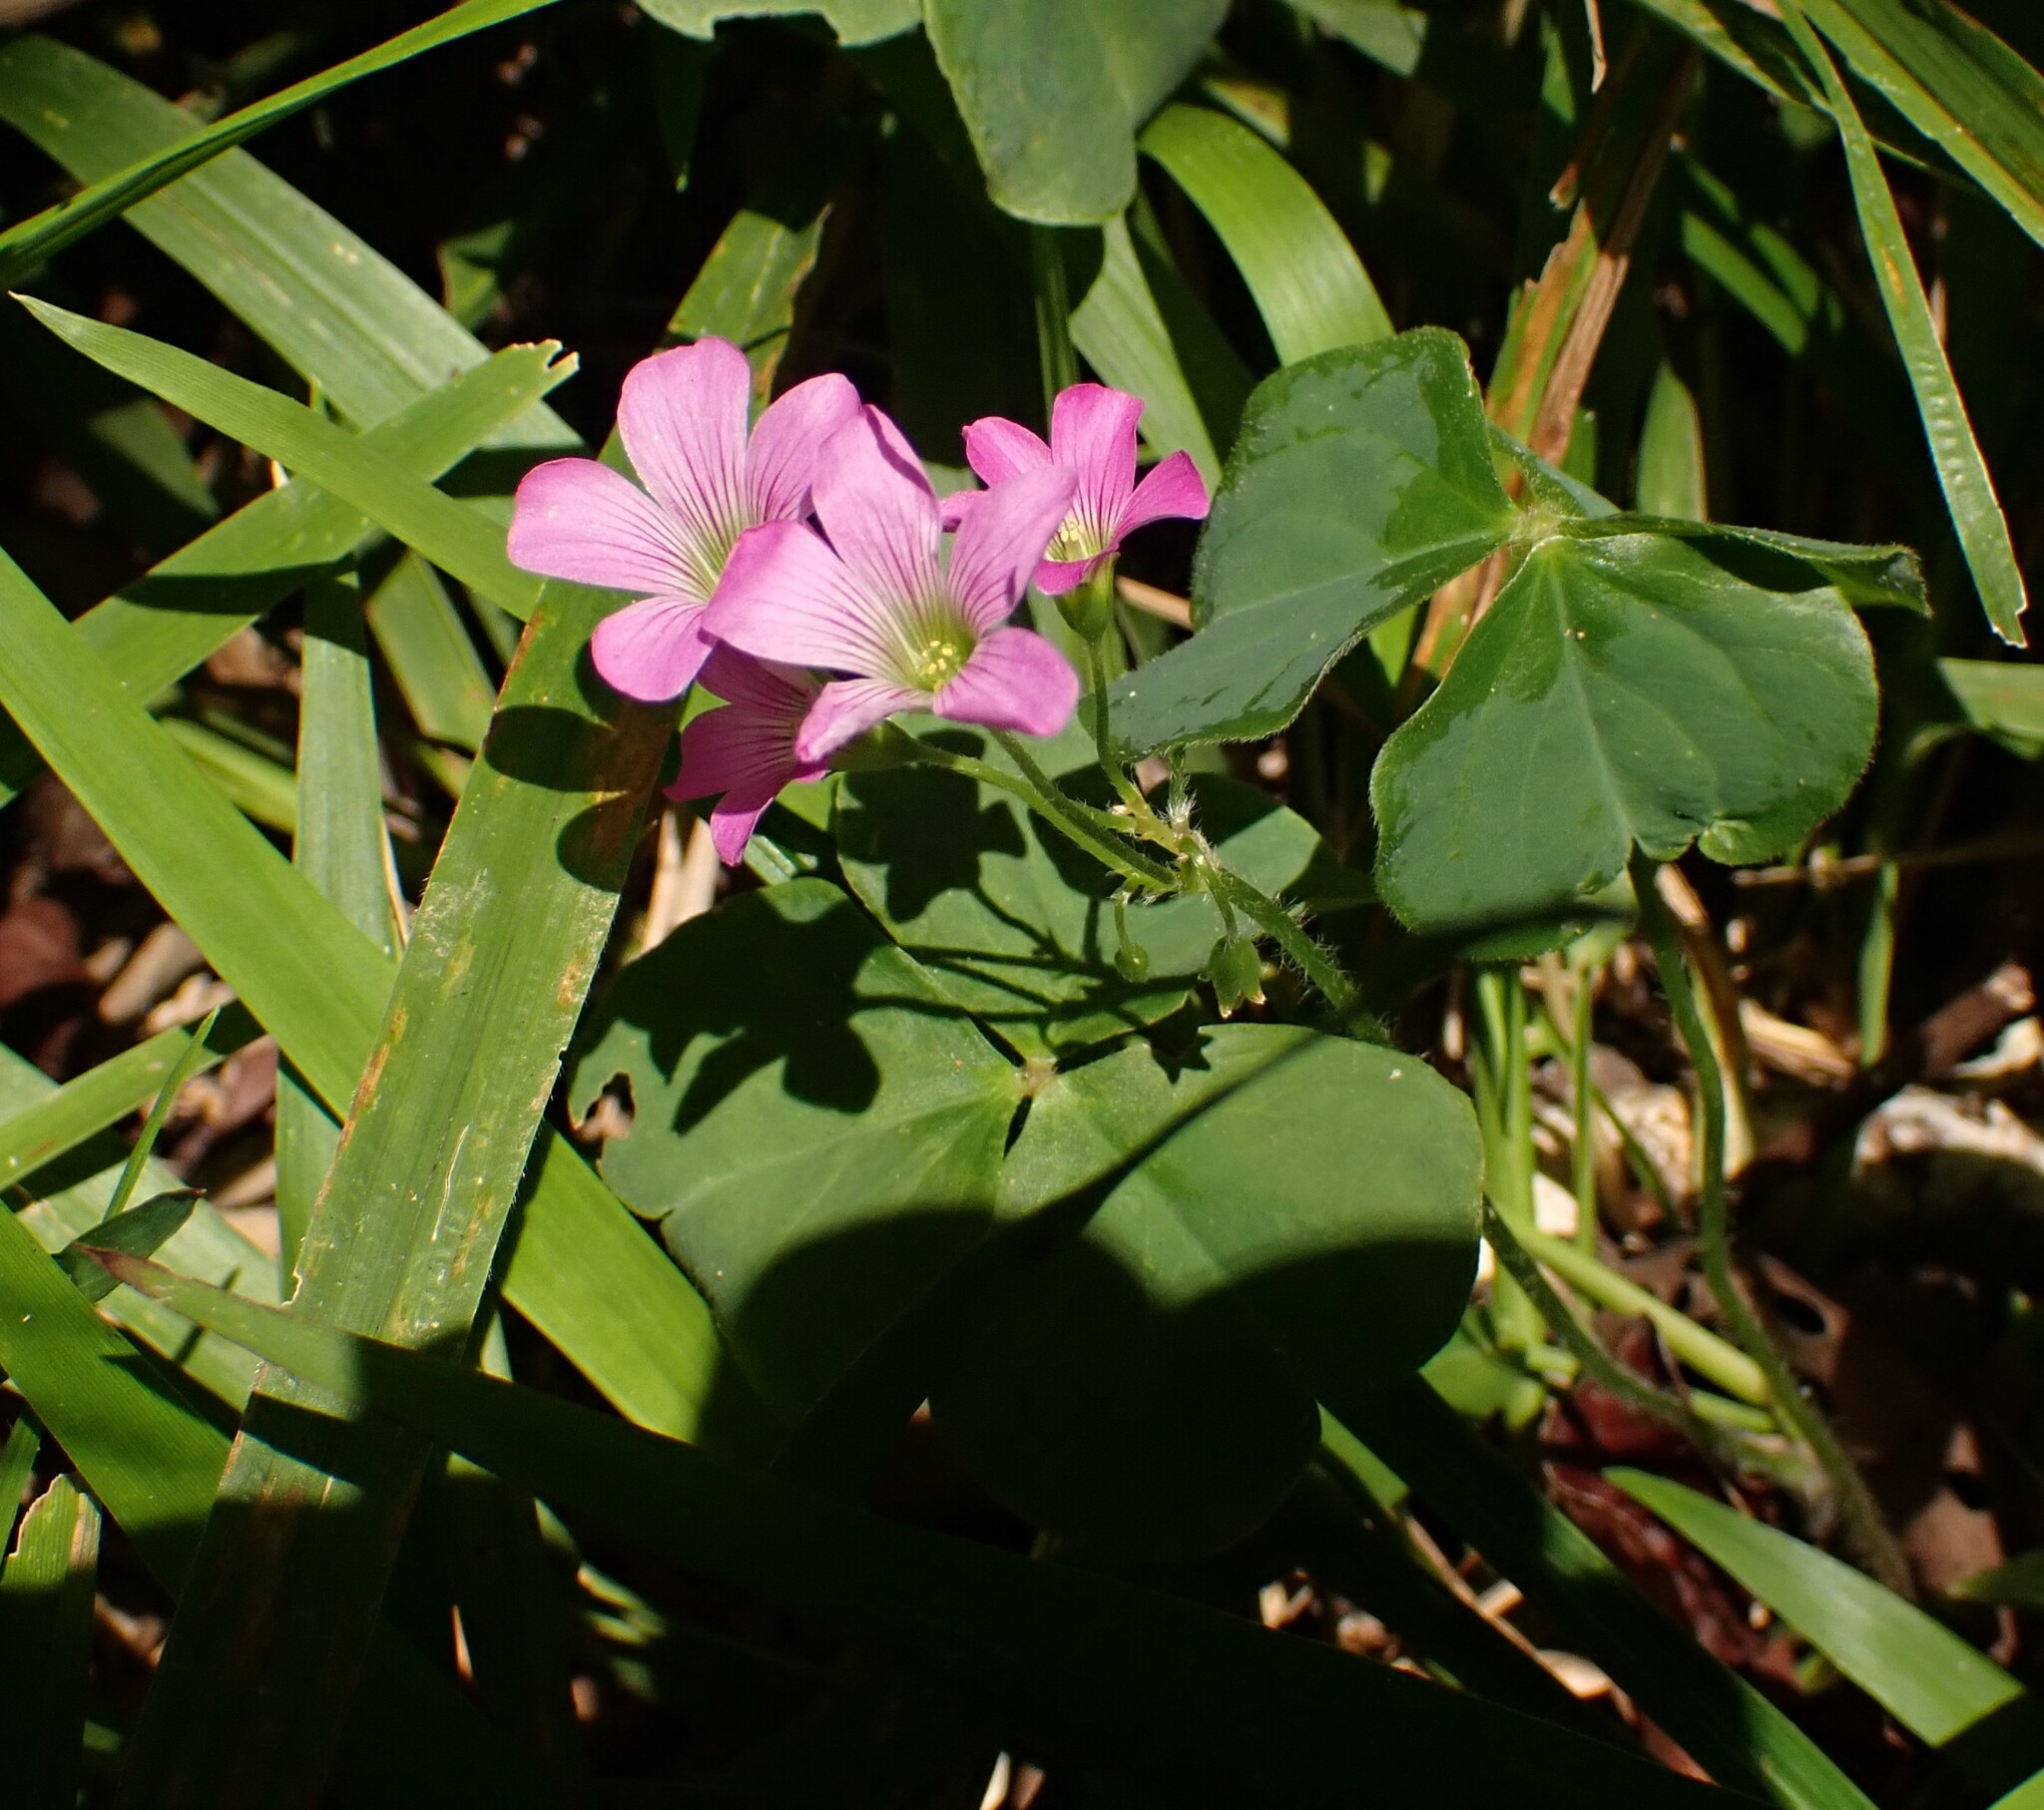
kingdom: Plantae
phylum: Tracheophyta
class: Magnoliopsida
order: Oxalidales
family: Oxalidaceae
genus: Oxalis
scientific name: Oxalis debilis
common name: Large-flowered pink-sorrel
